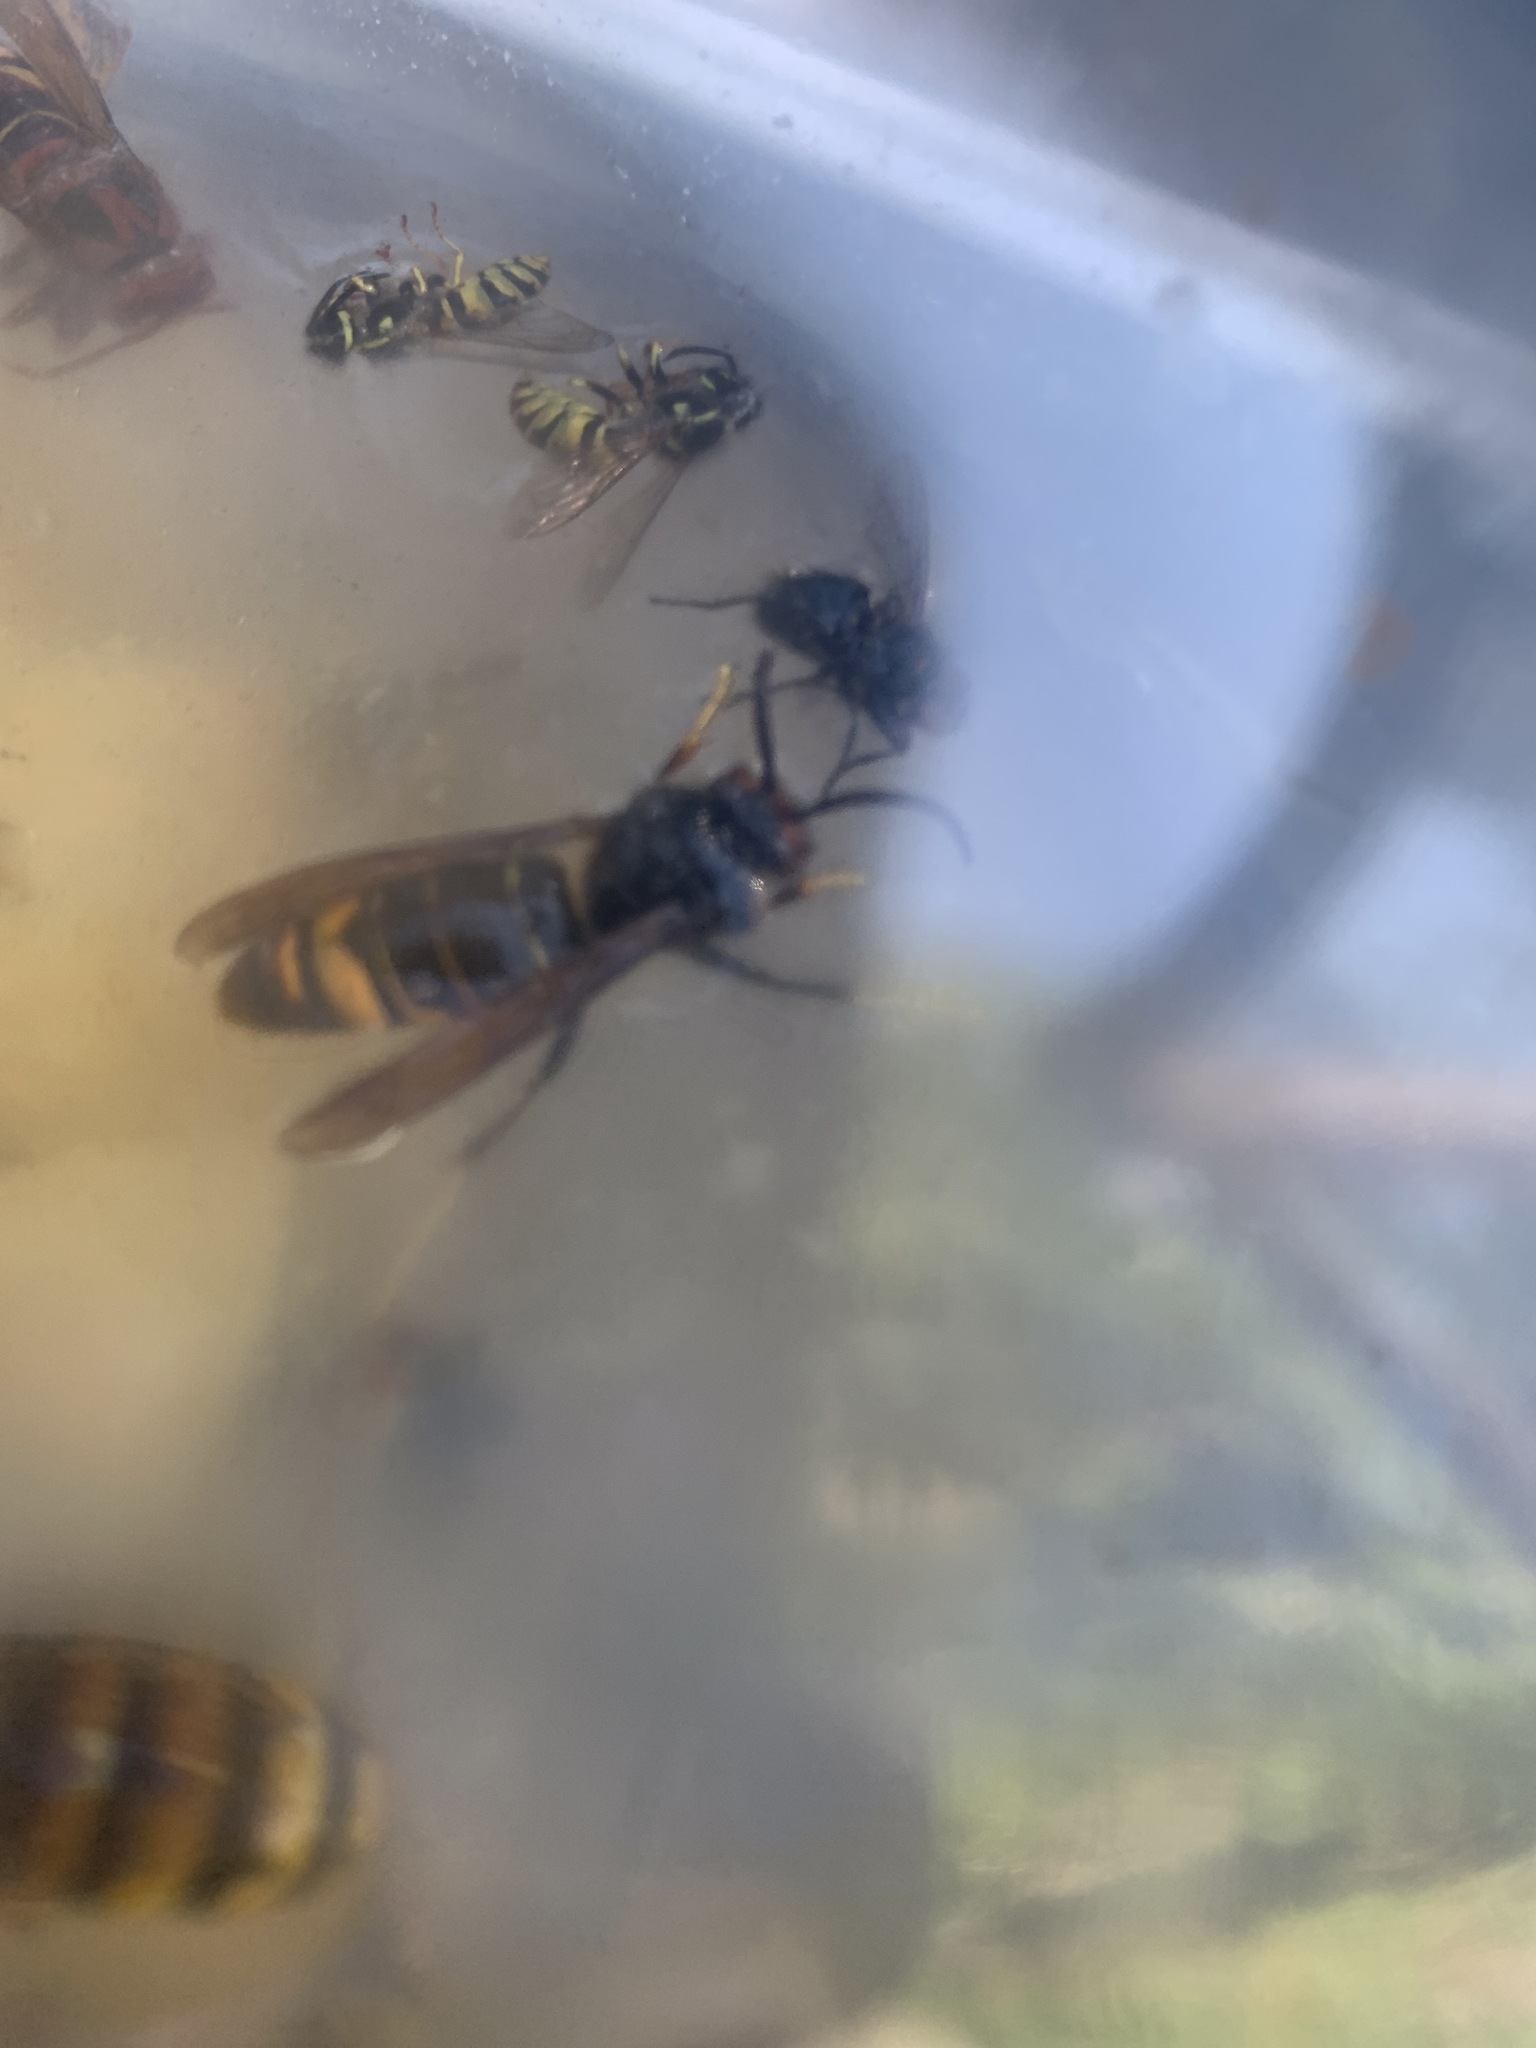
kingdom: Animalia
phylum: Arthropoda
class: Insecta
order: Hymenoptera
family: Vespidae
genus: Vespa
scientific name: Vespa velutina
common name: Asian hornet
